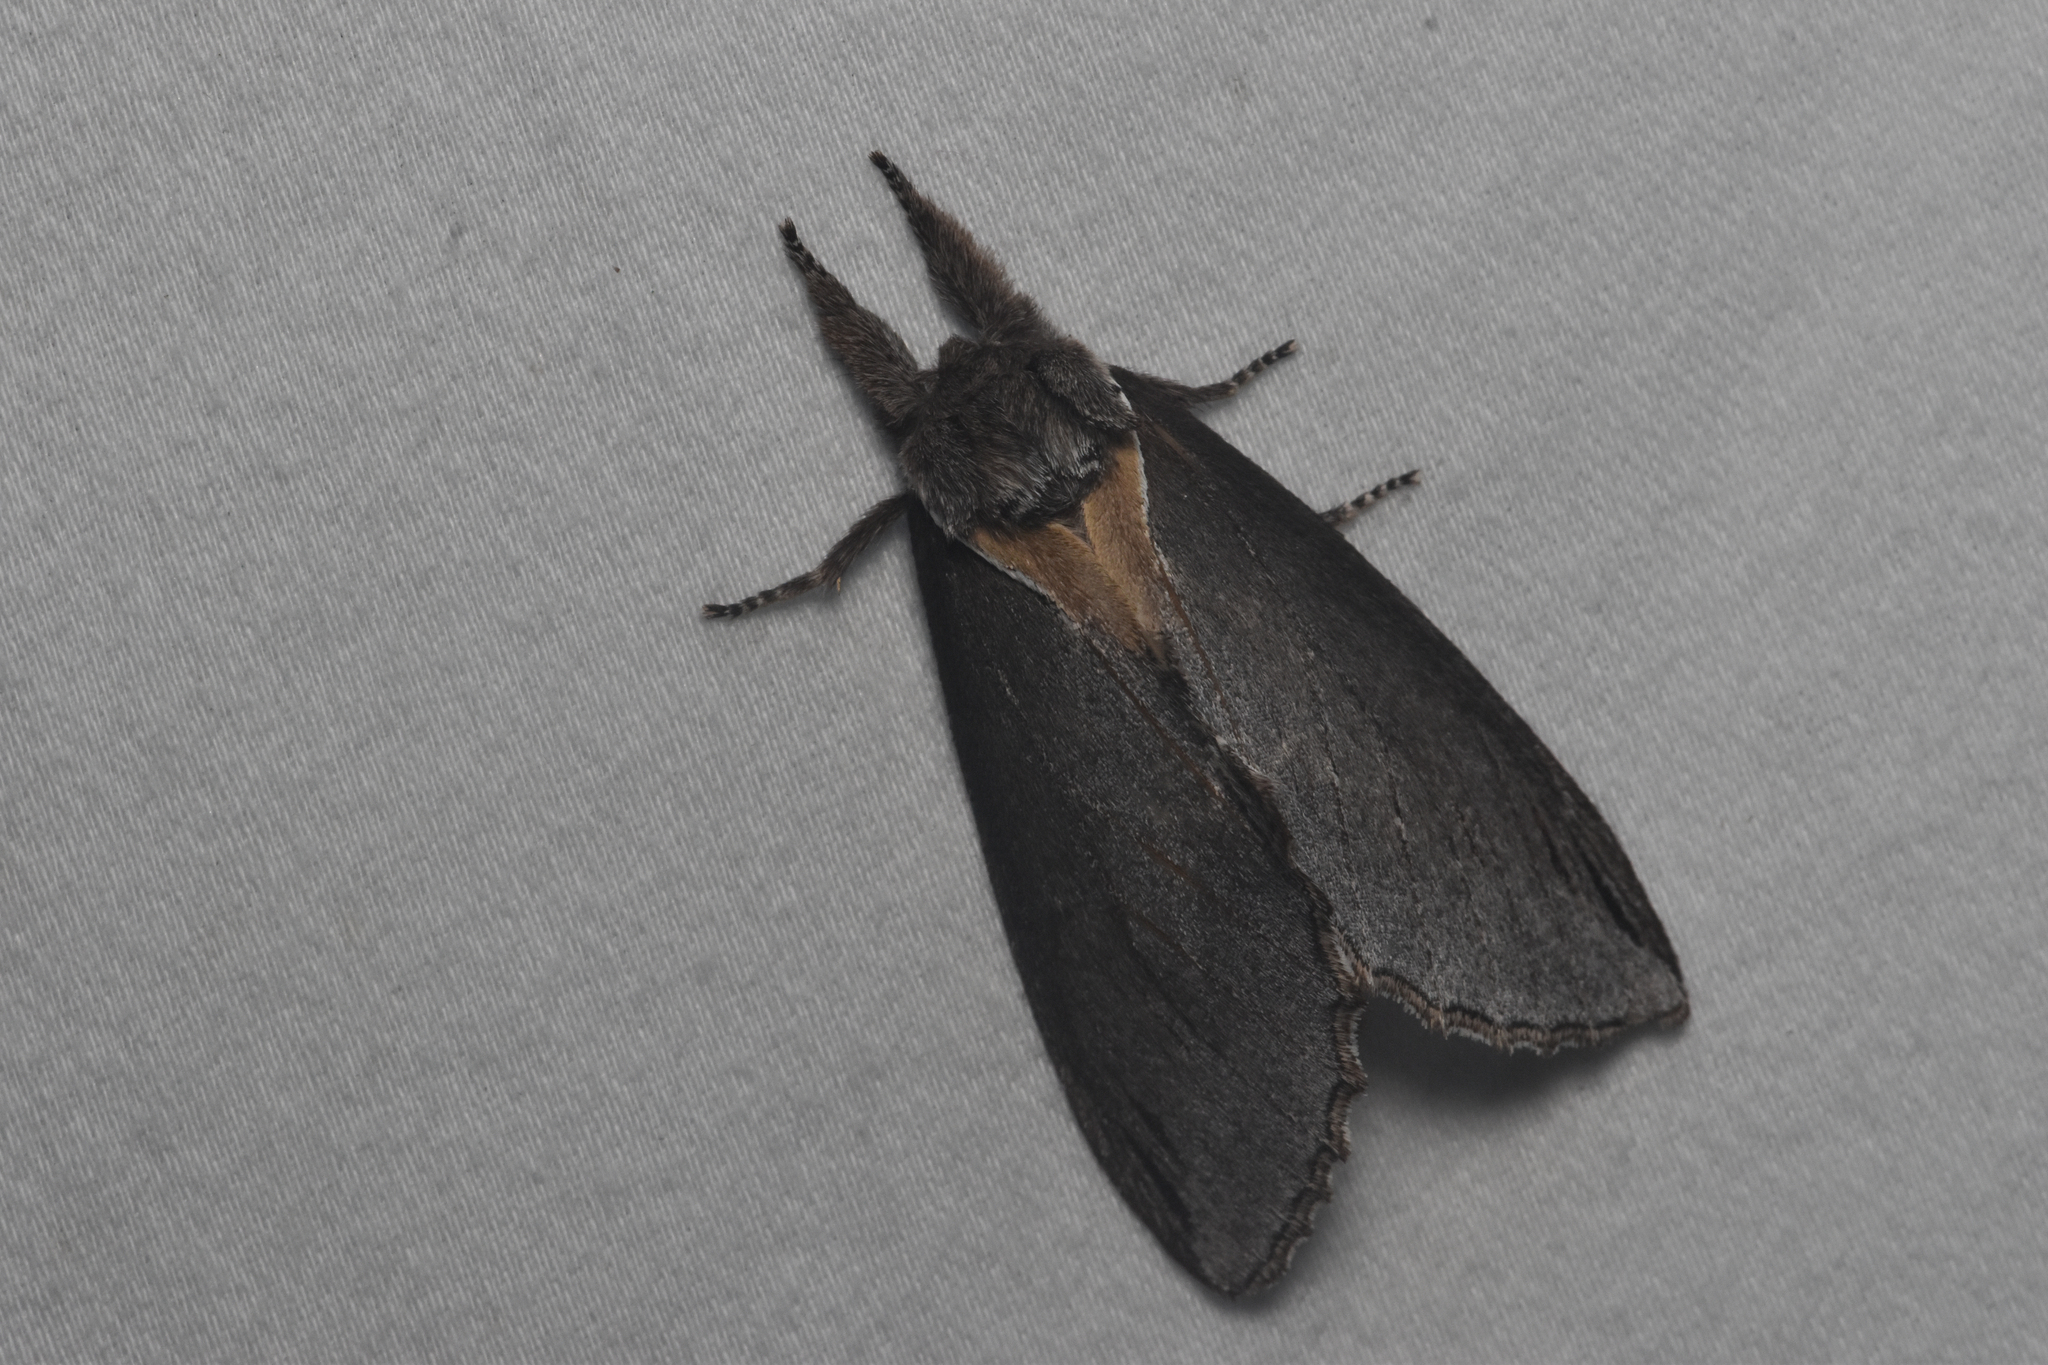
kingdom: Animalia
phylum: Arthropoda
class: Insecta
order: Lepidoptera
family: Notodontidae
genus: Pheosidea
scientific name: Pheosidea elegans
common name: Elegant prominent
